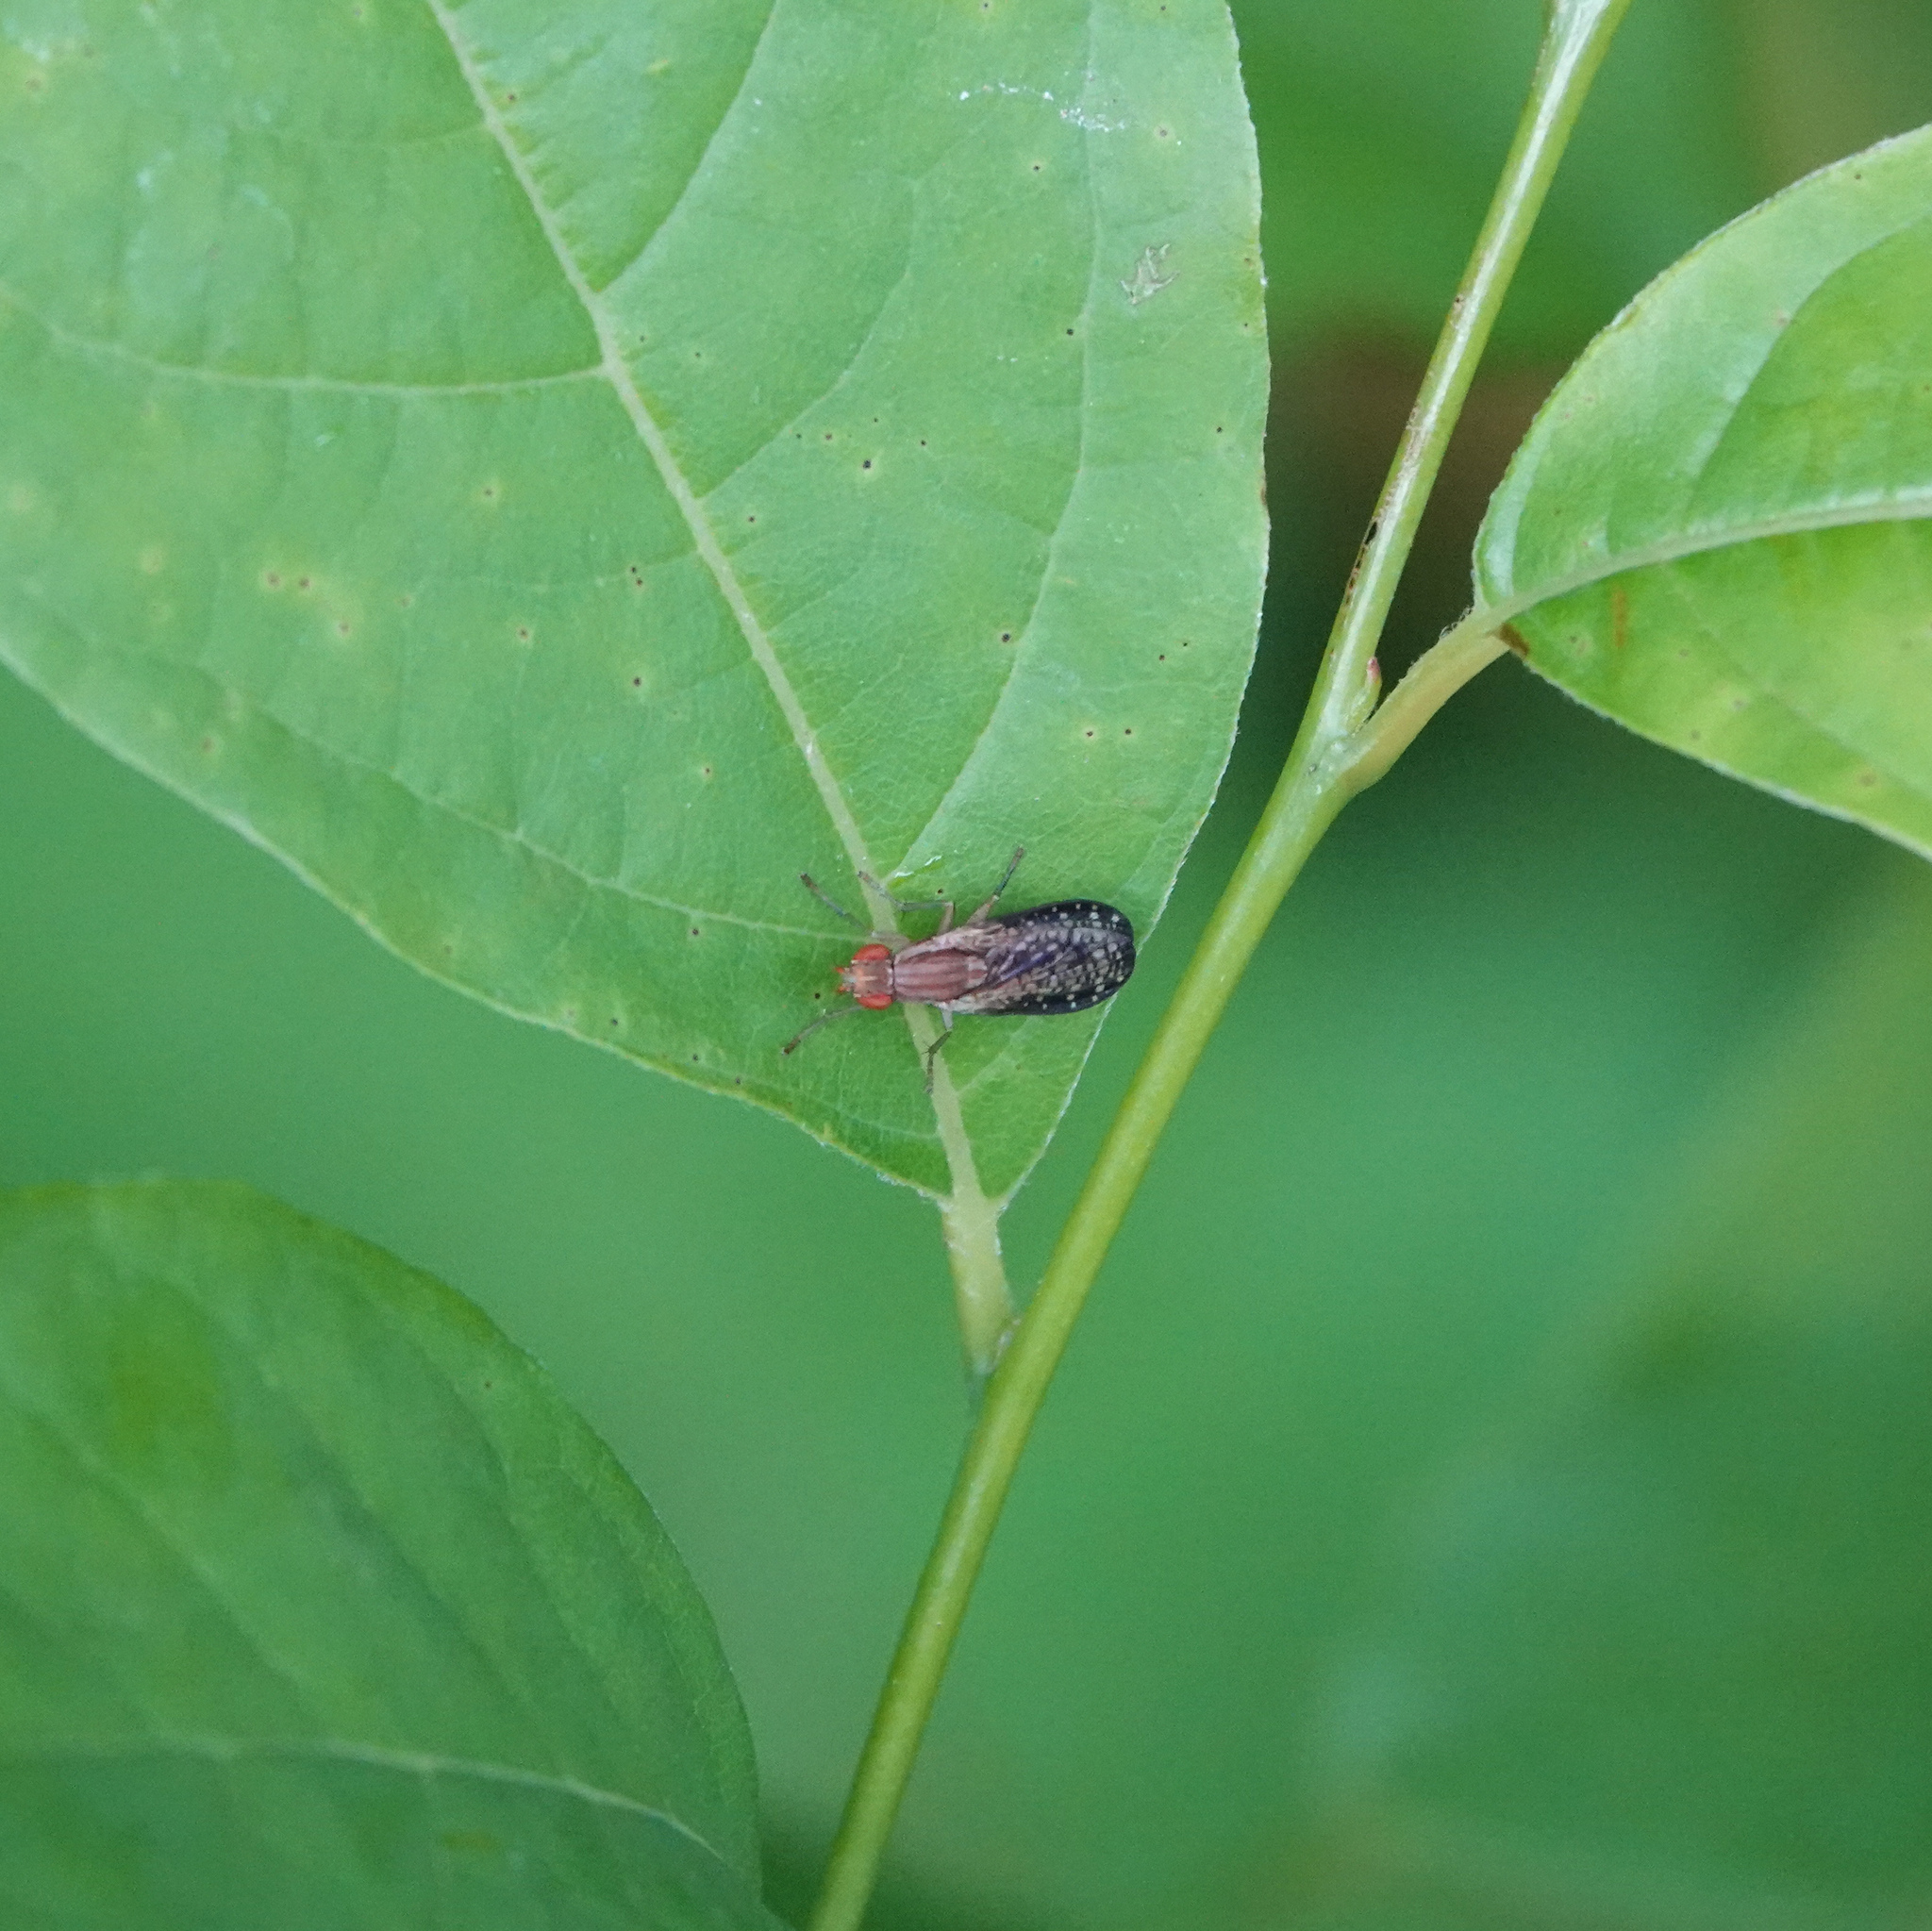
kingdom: Animalia
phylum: Arthropoda
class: Insecta
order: Diptera
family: Sciomyzidae
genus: Trypetoptera
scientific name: Trypetoptera canadensis
